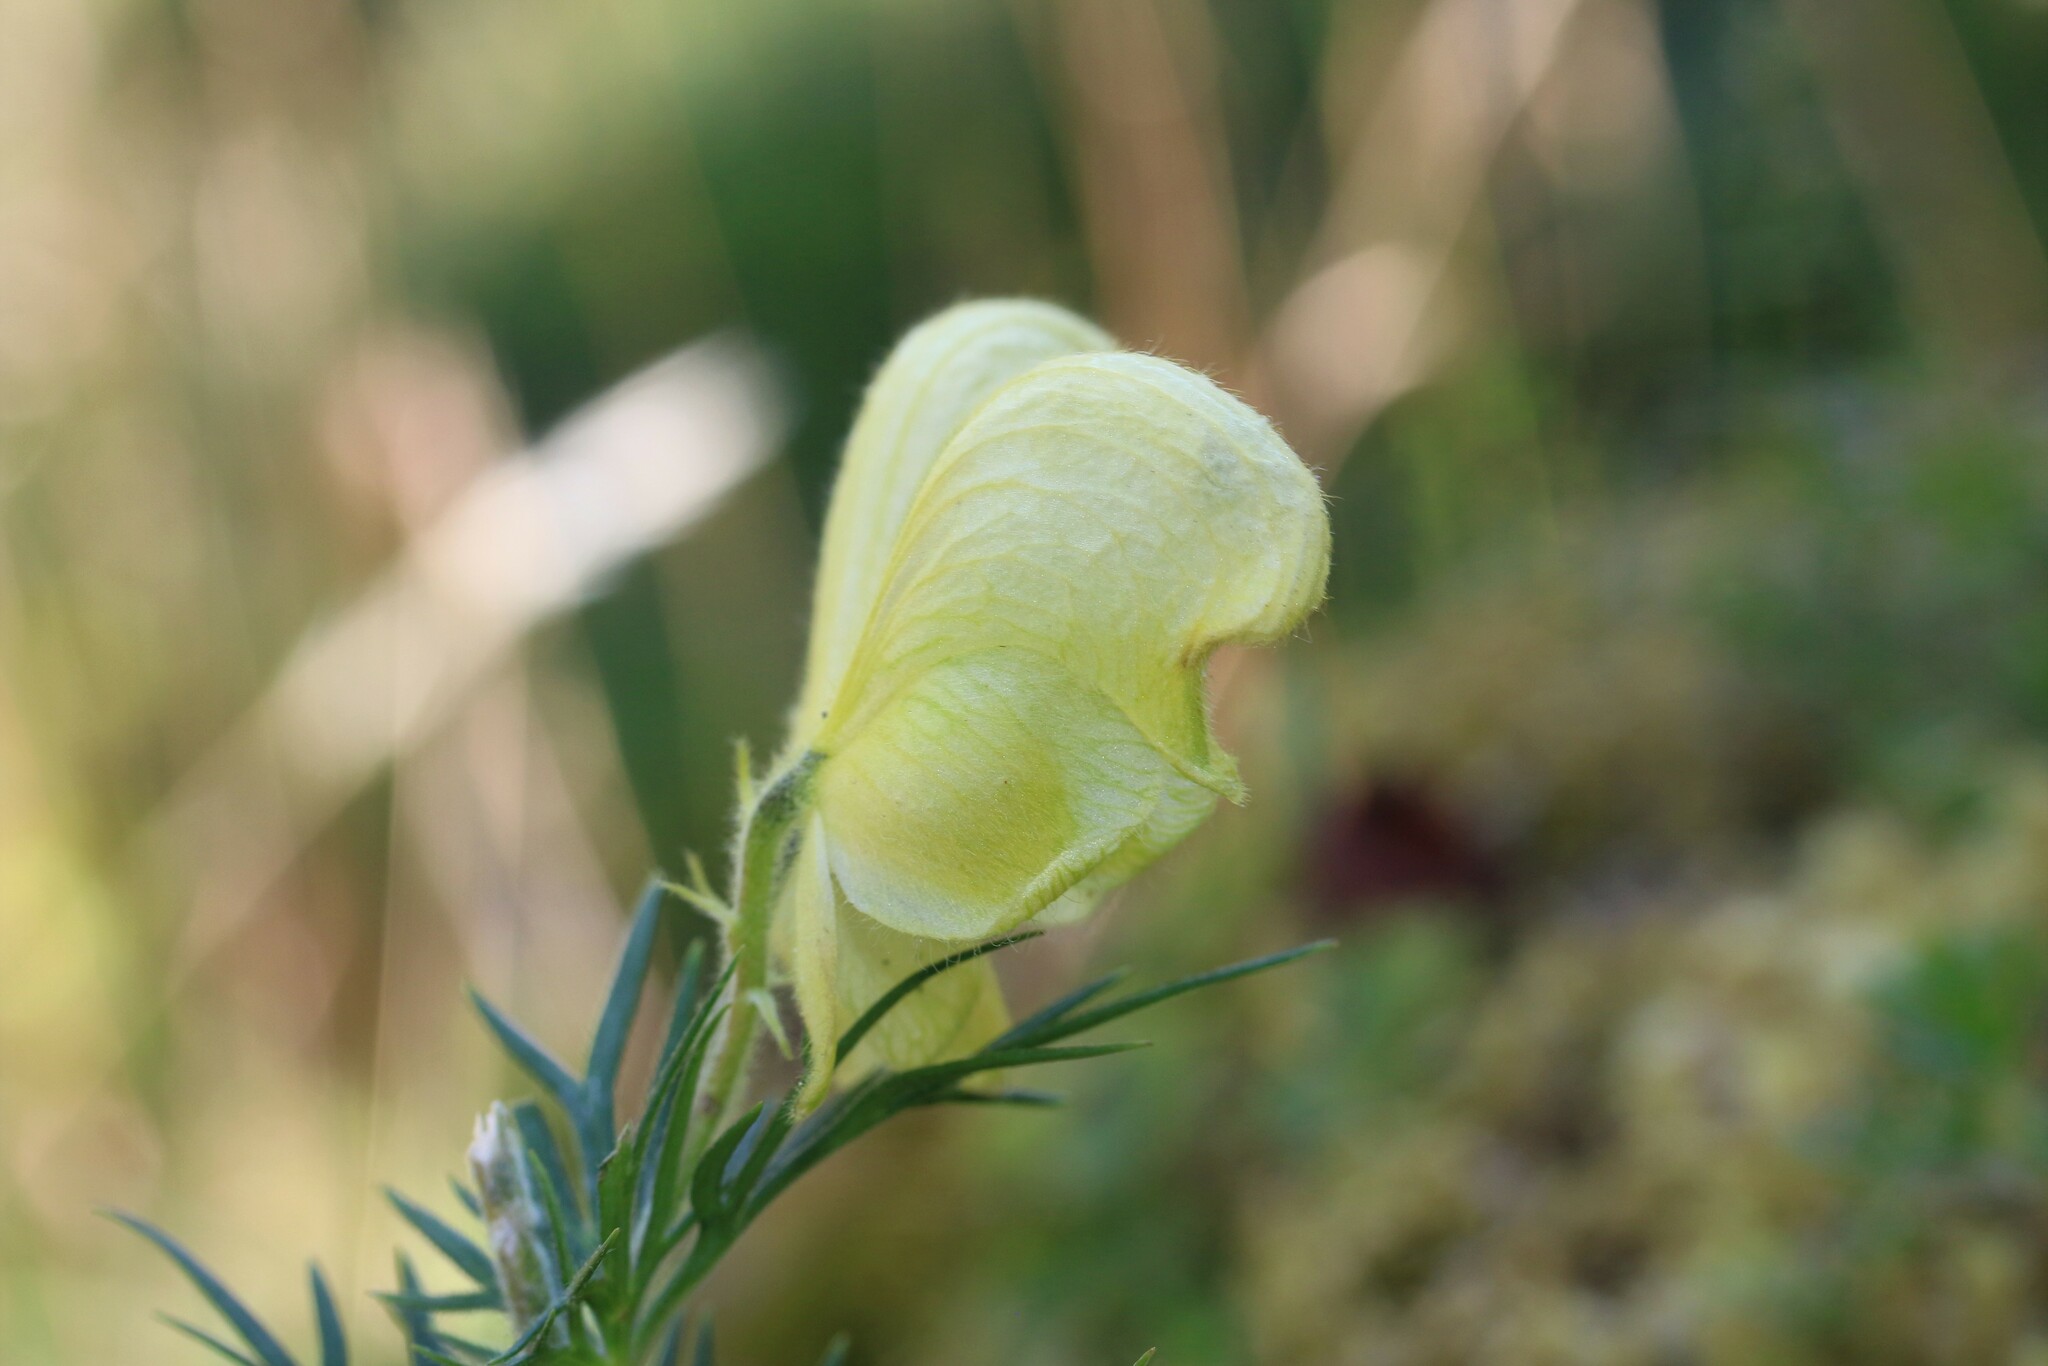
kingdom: Plantae
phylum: Tracheophyta
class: Magnoliopsida
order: Ranunculales
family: Ranunculaceae
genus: Aconitum
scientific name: Aconitum anthora
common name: Yellow monkshood
